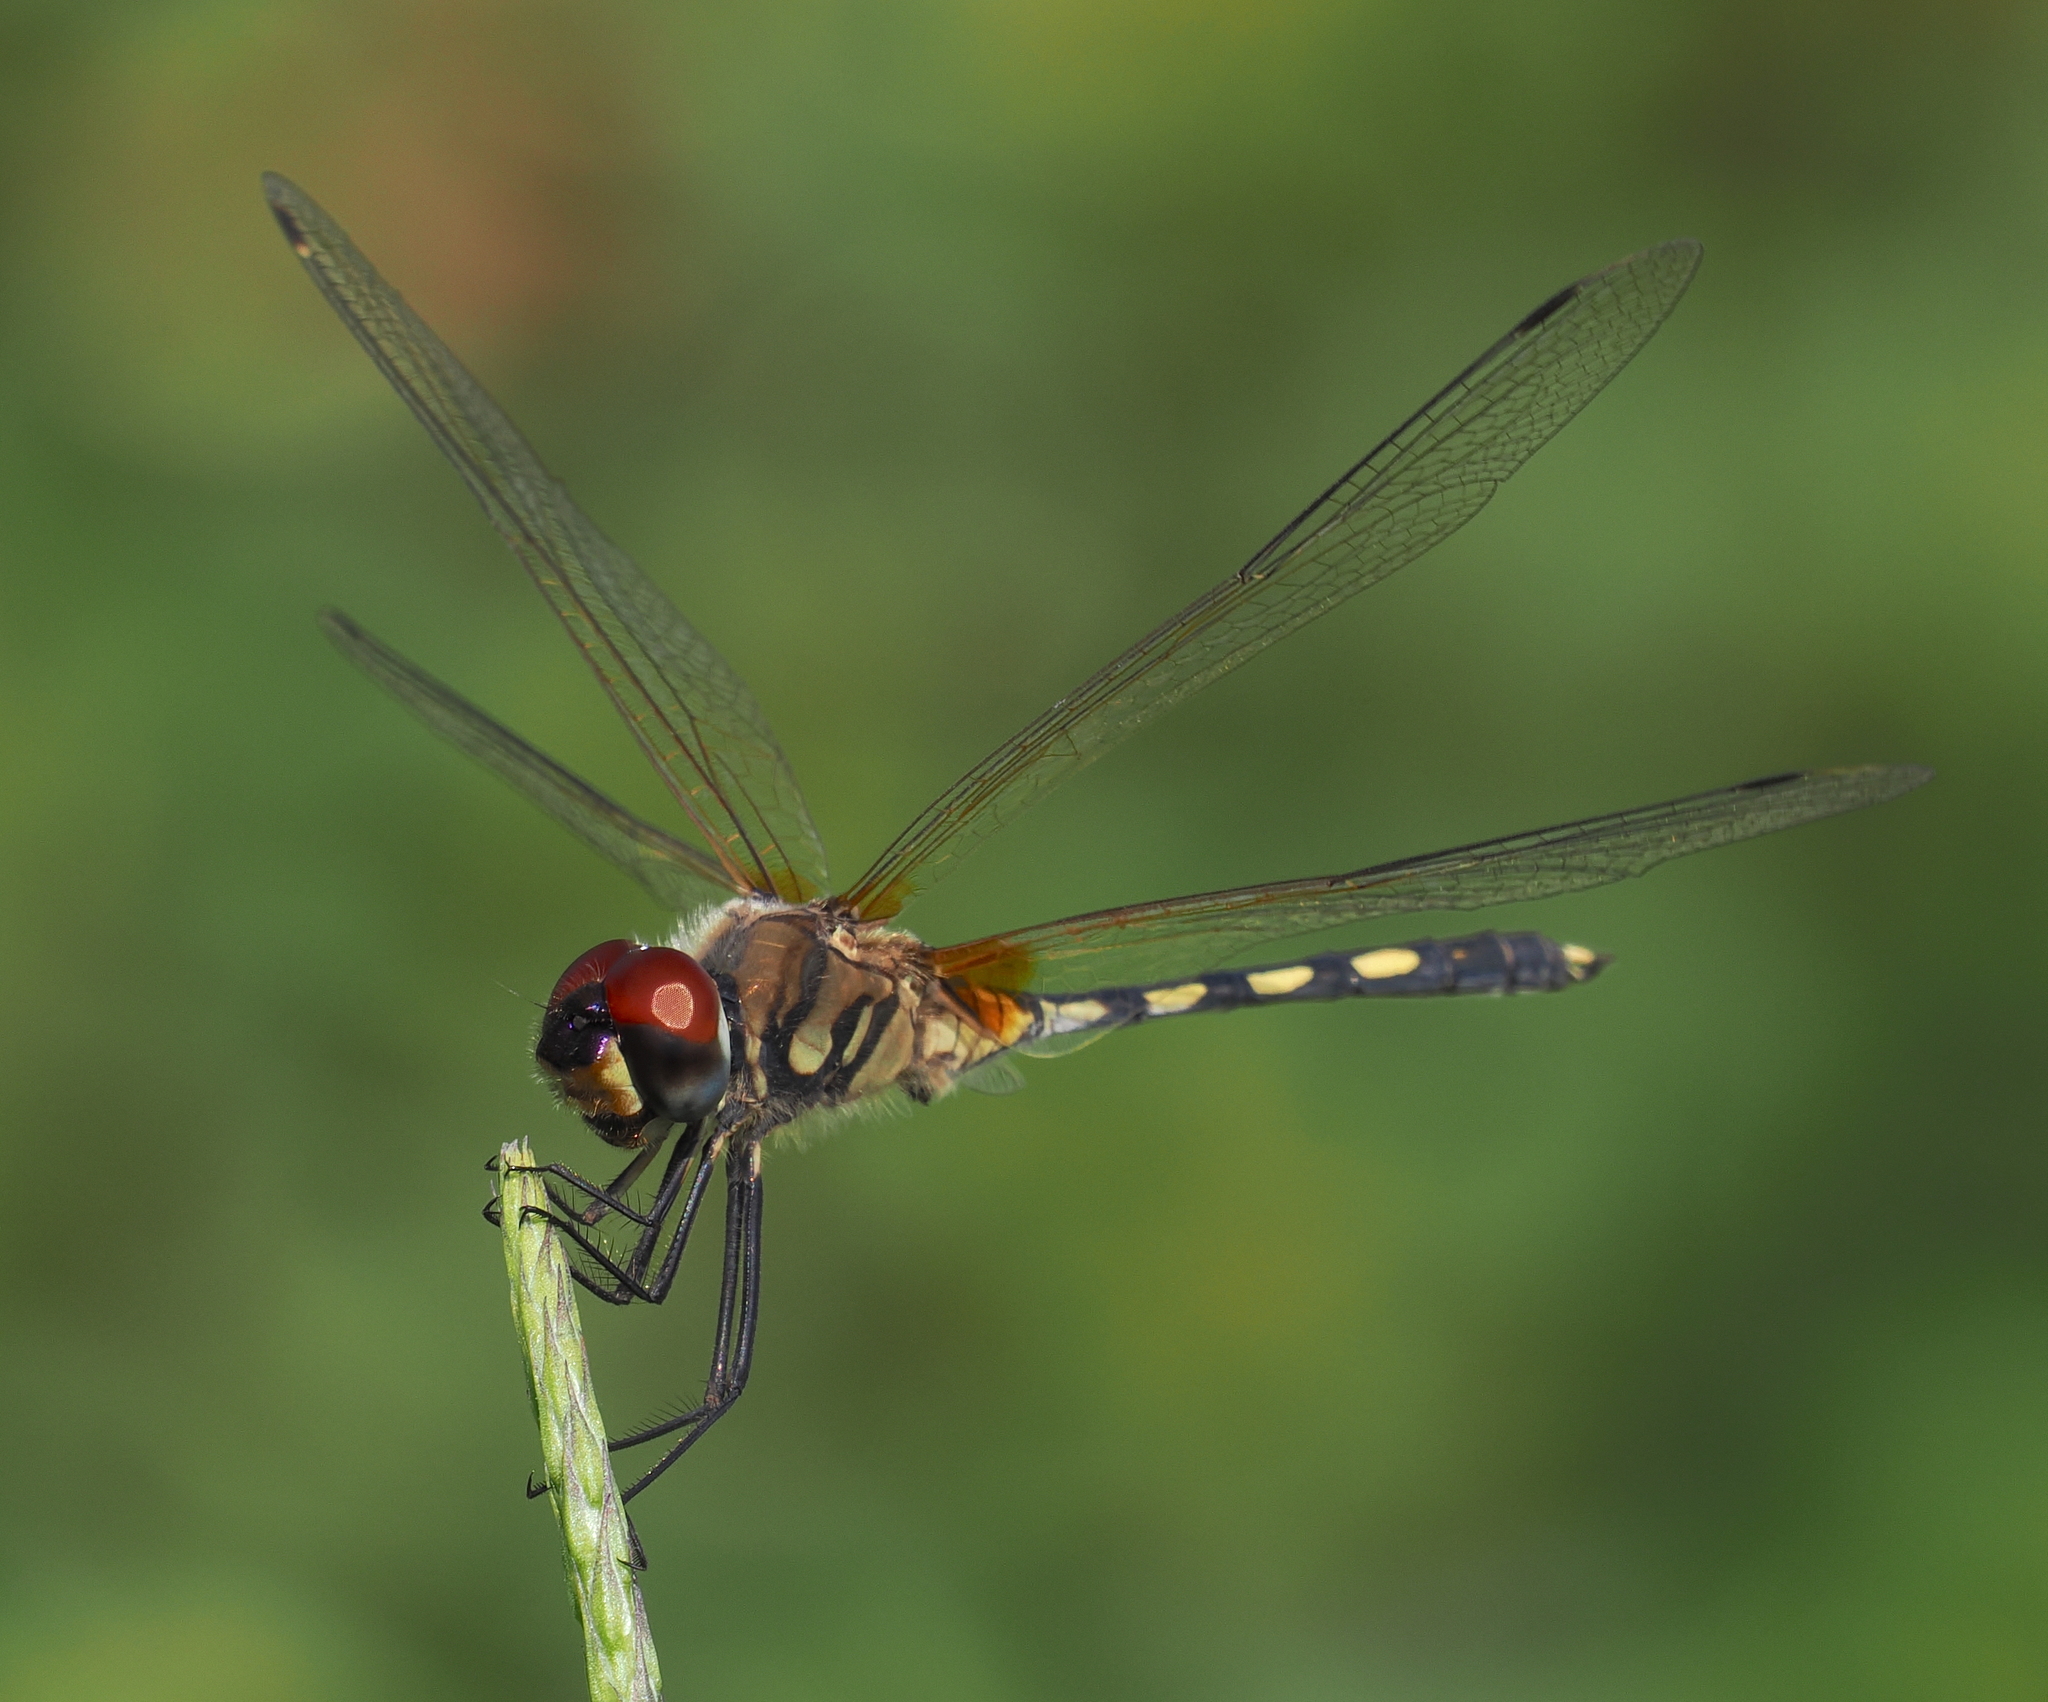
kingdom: Animalia
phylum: Arthropoda
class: Insecta
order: Odonata
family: Libellulidae
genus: Trithemis
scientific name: Trithemis pallidinervis
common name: Dancing dropwing
